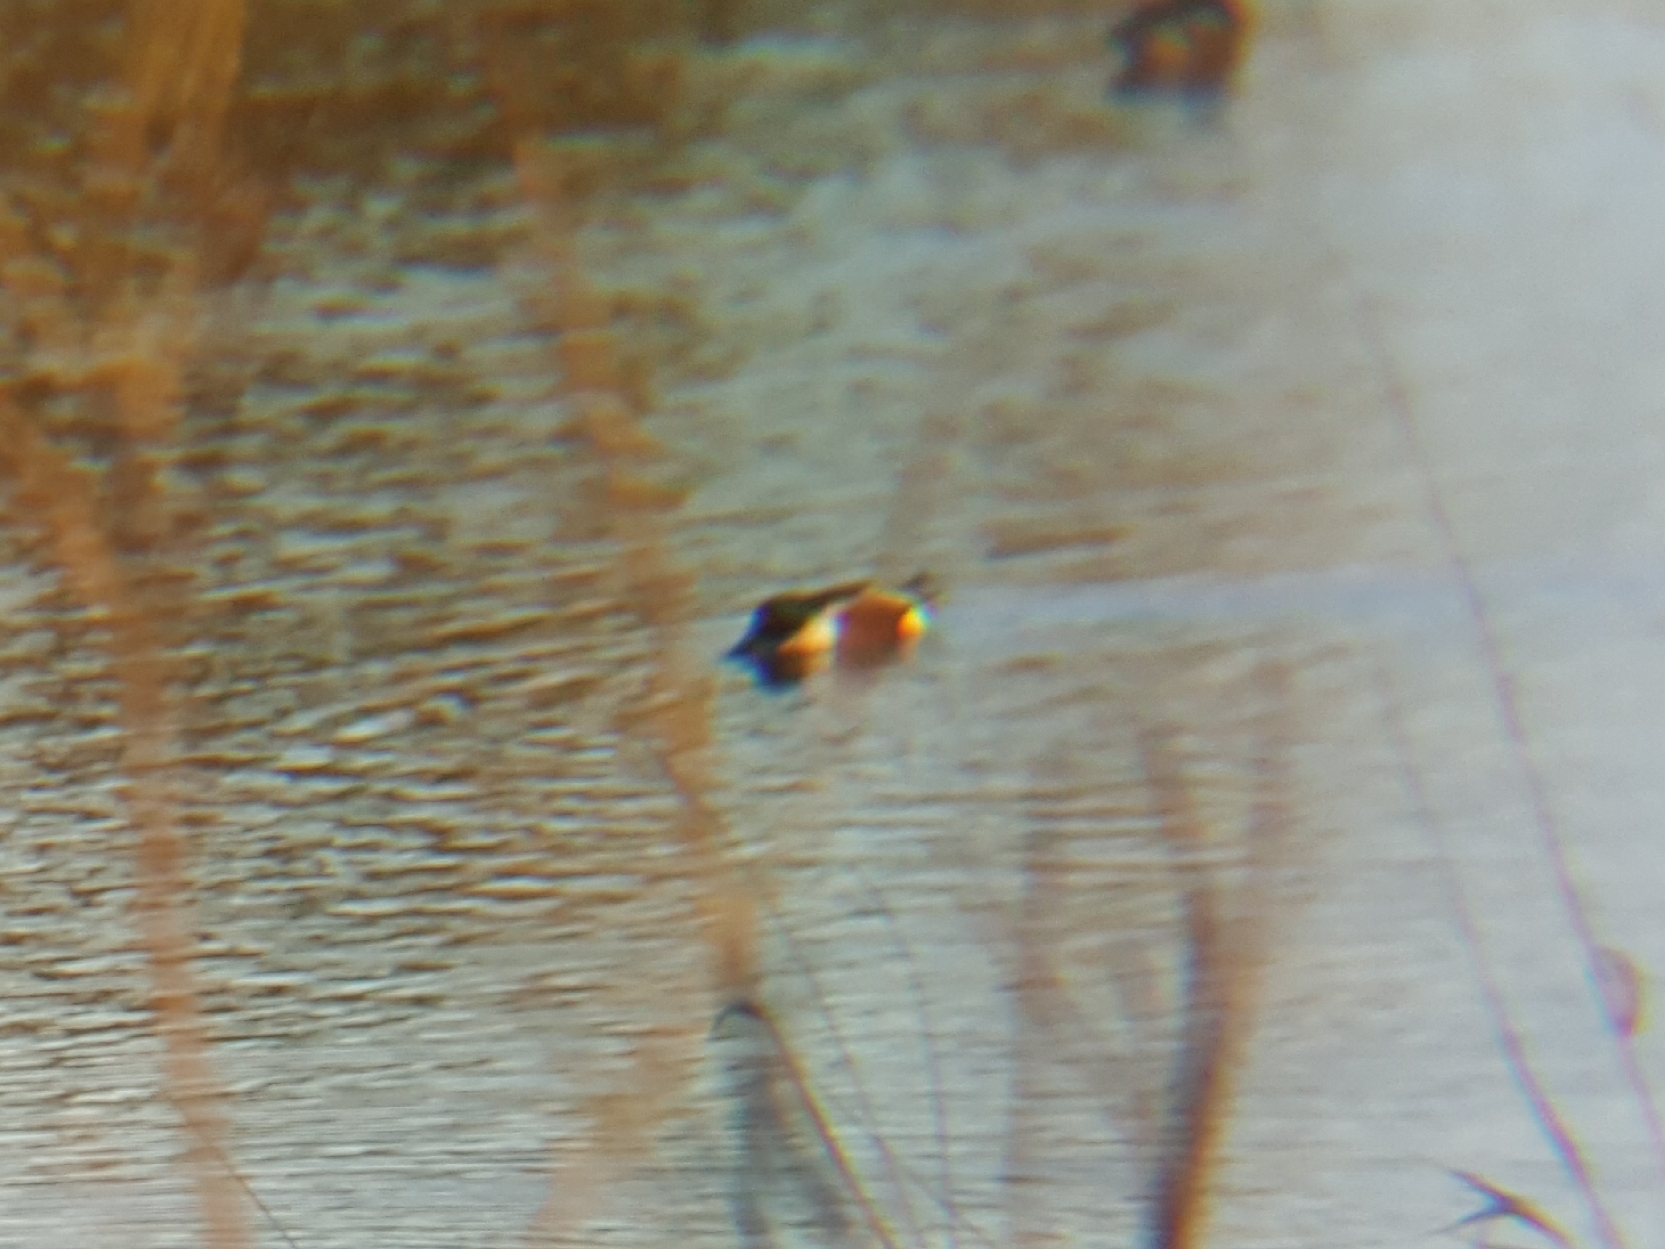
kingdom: Animalia
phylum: Chordata
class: Aves
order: Anseriformes
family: Anatidae
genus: Spatula
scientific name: Spatula clypeata
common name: Northern shoveler
